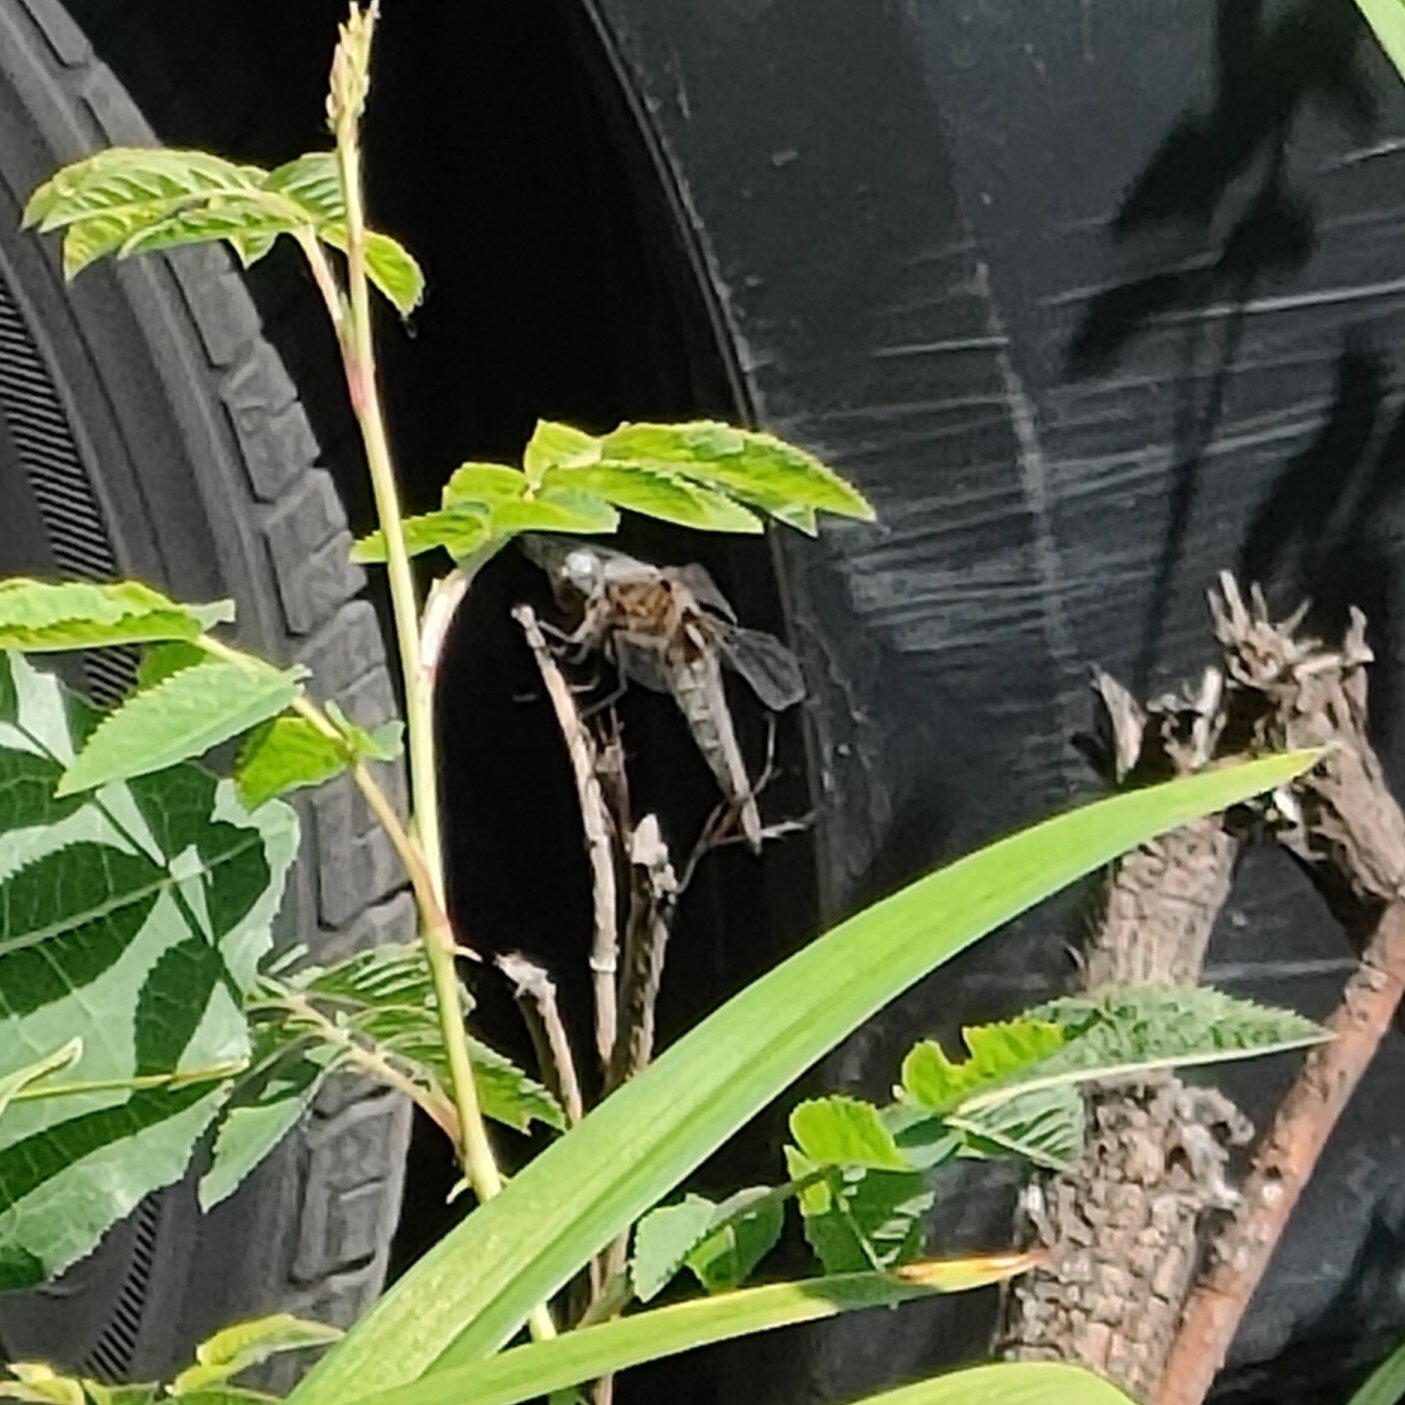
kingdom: Animalia
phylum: Arthropoda
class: Insecta
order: Odonata
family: Libellulidae
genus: Libellula
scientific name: Libellula fulva
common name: Blue chaser
